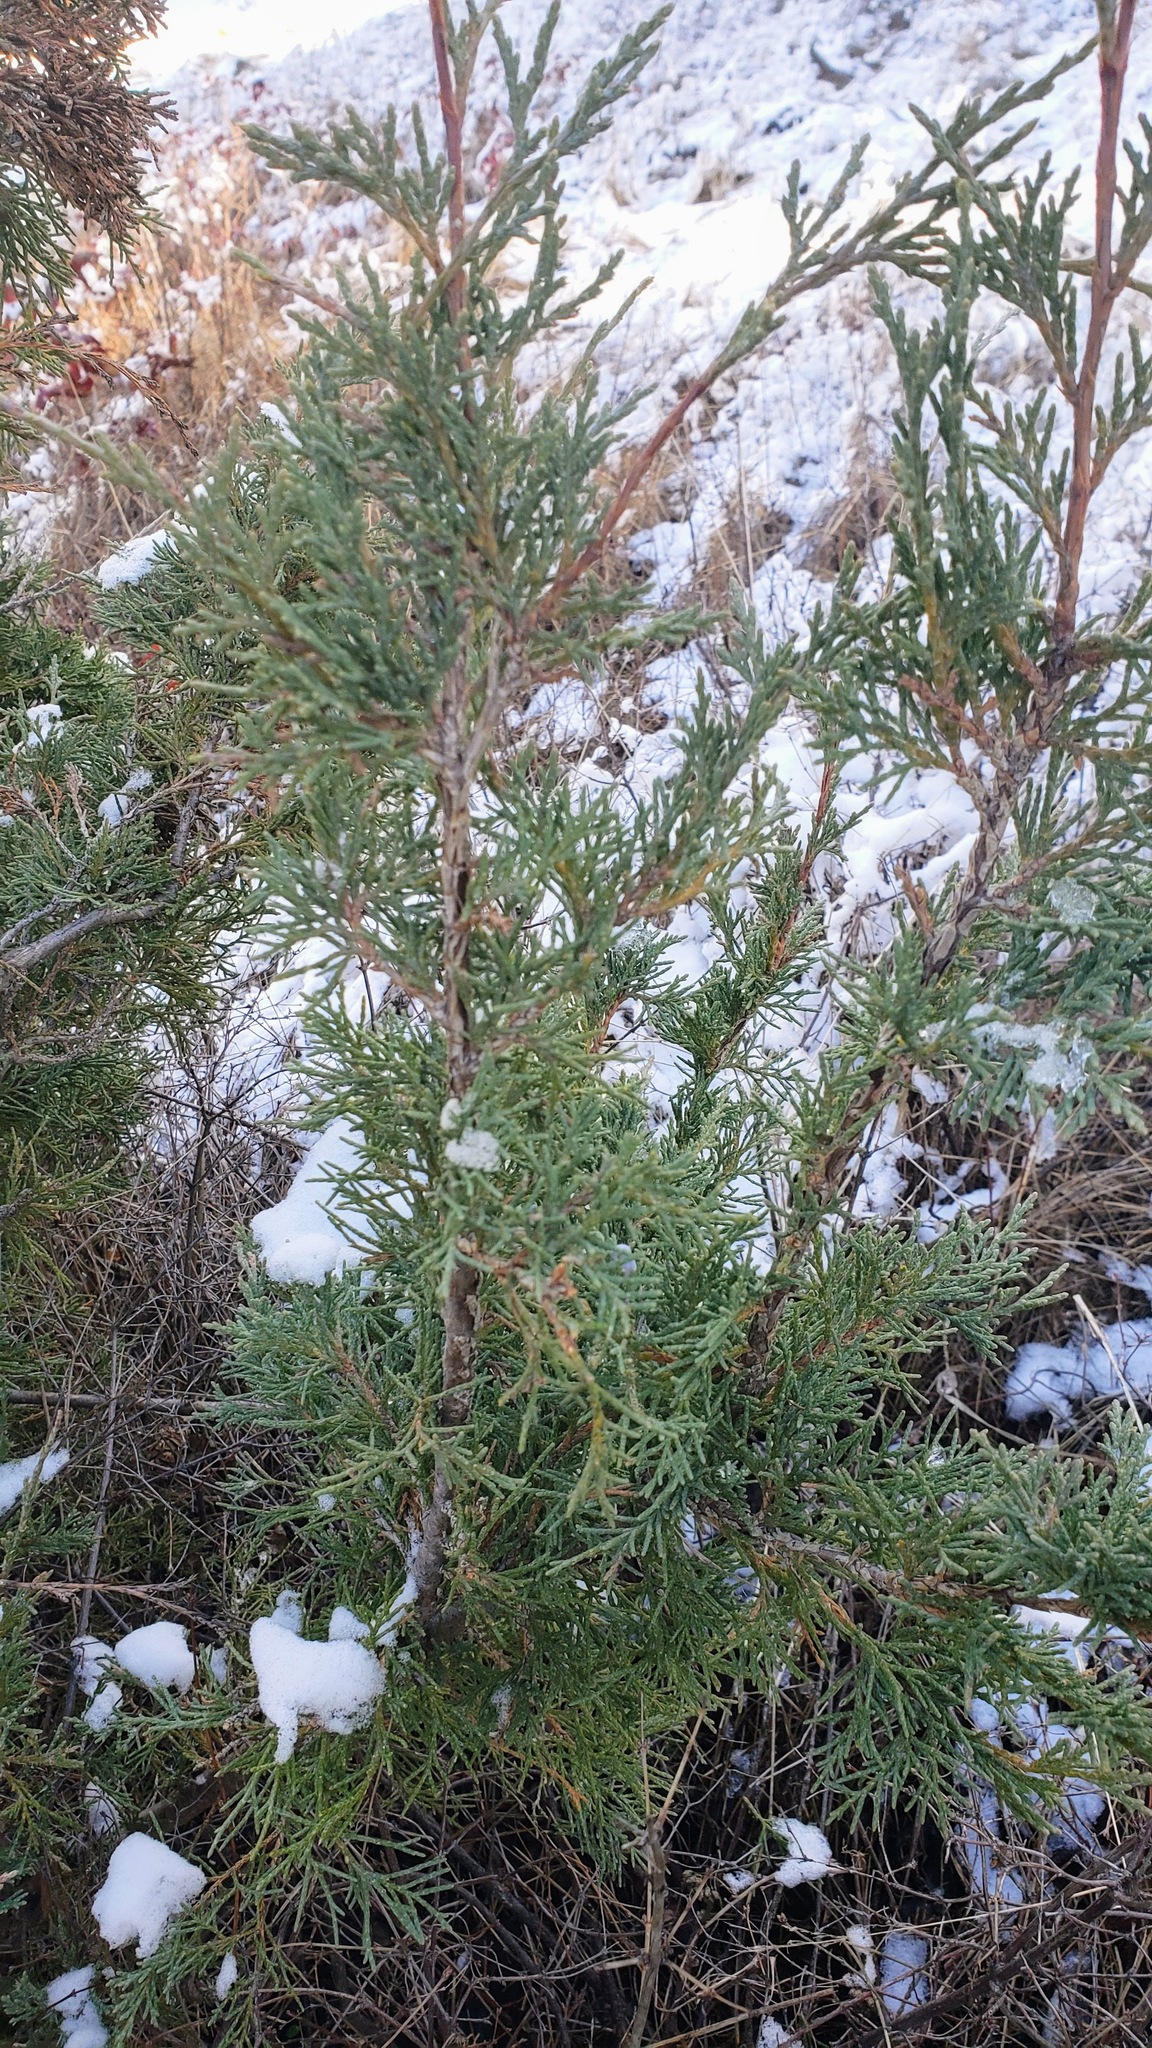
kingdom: Plantae
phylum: Tracheophyta
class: Pinopsida
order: Pinales
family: Cupressaceae
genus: Juniperus
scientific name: Juniperus scopulorum
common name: Rocky mountain juniper
